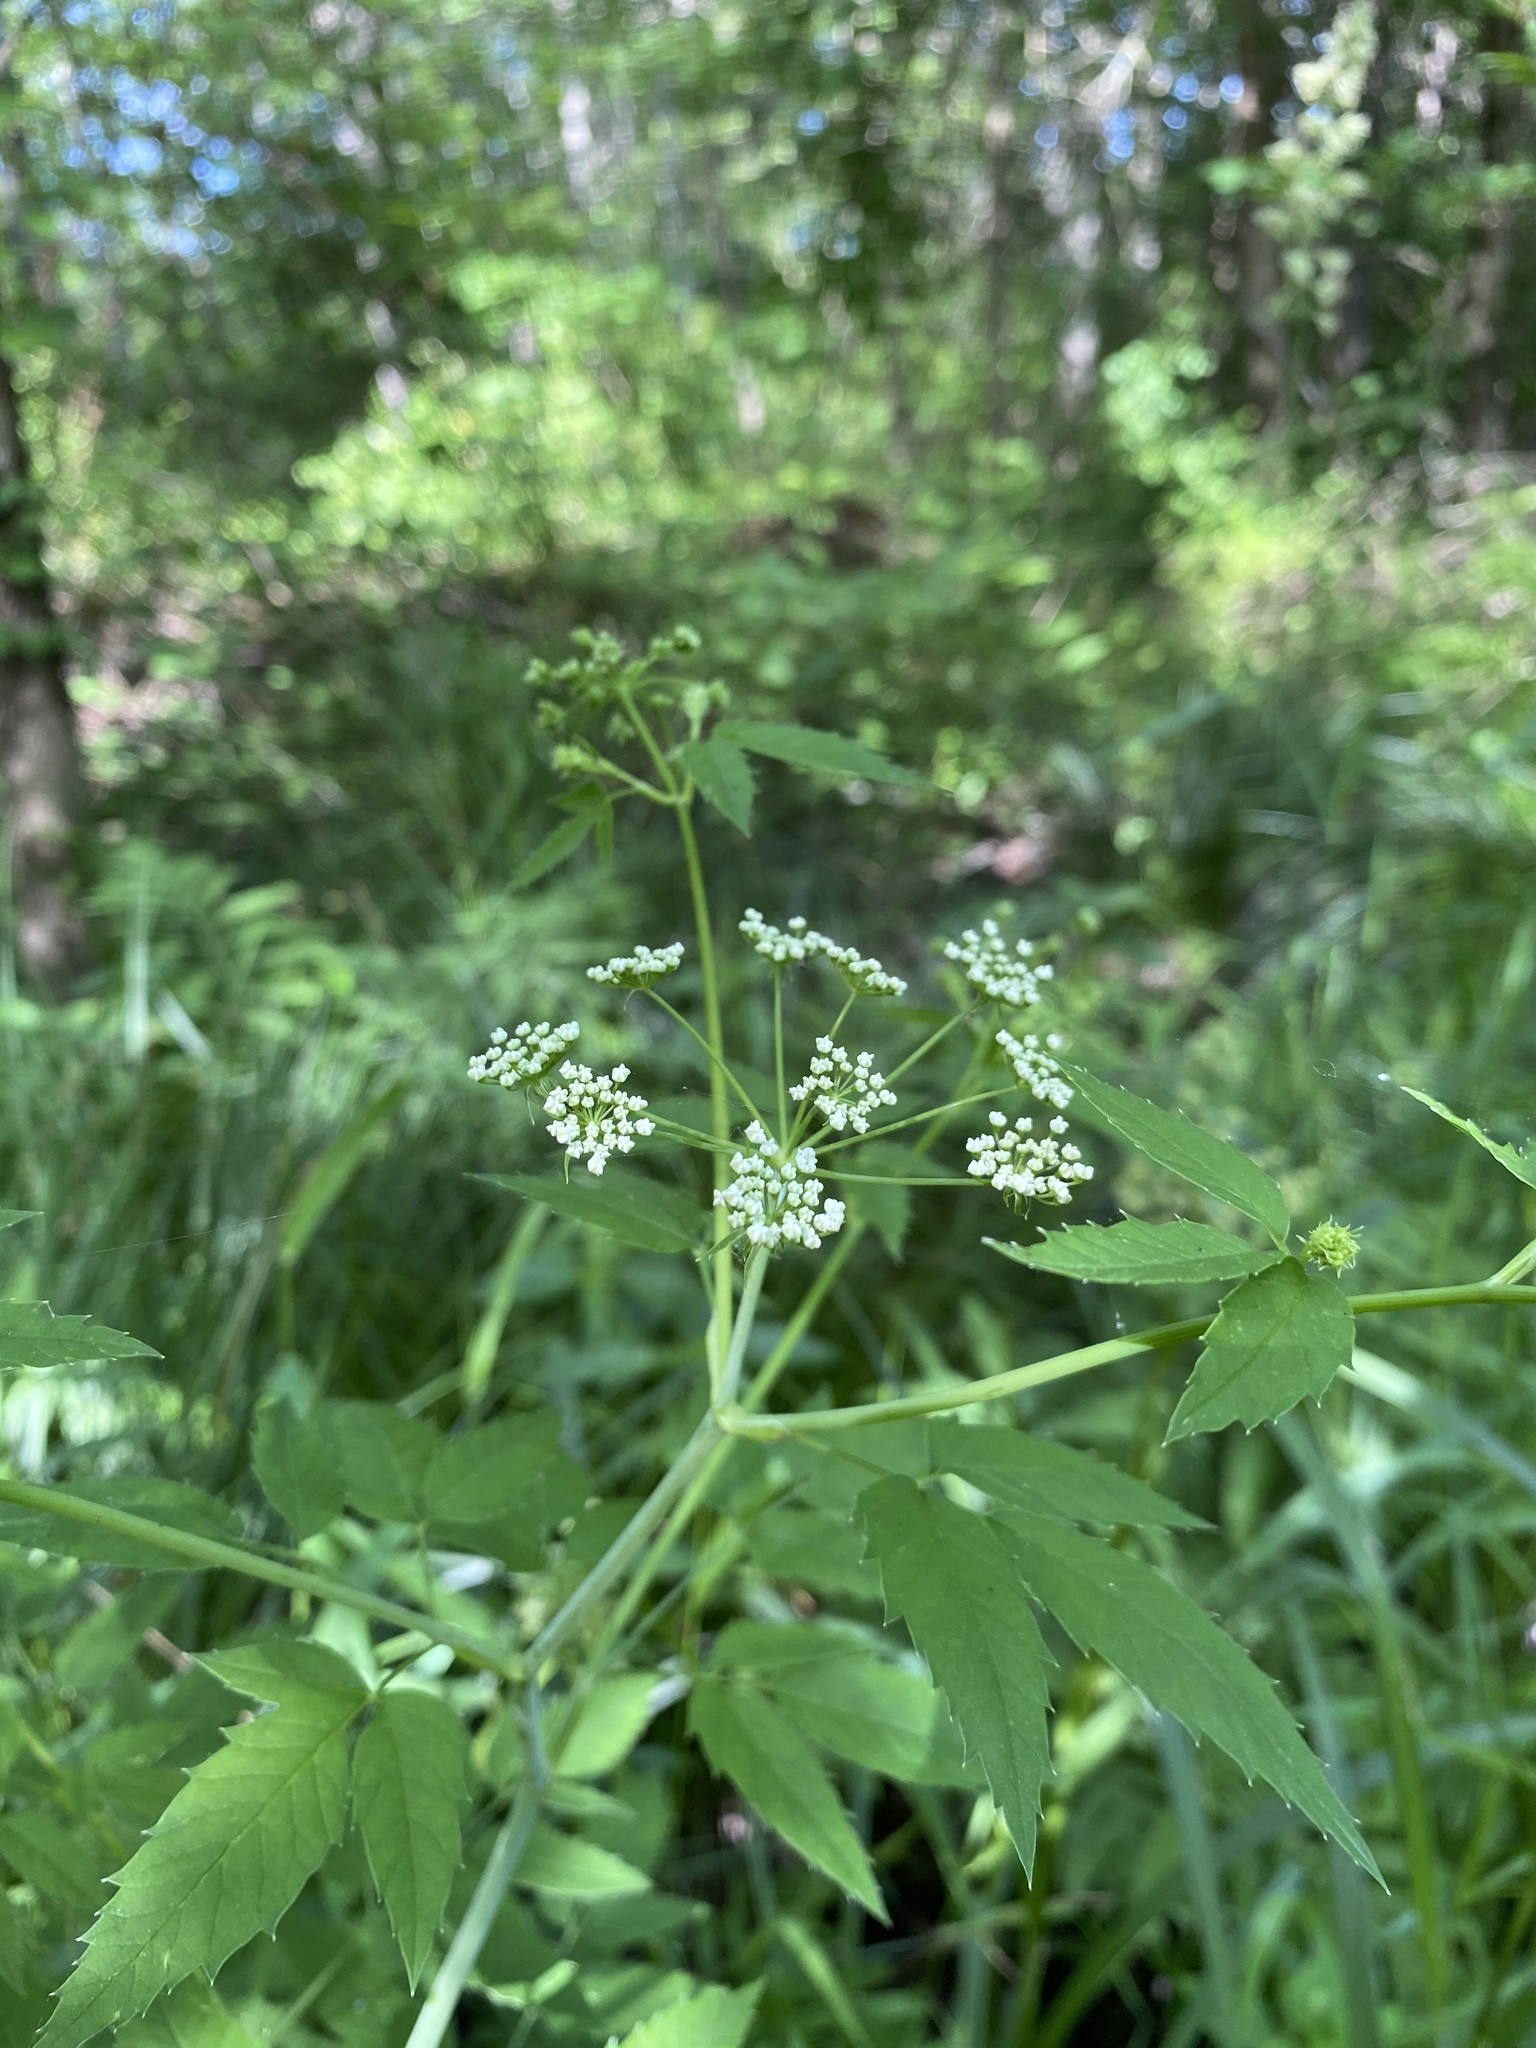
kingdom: Plantae
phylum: Tracheophyta
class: Magnoliopsida
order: Apiales
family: Apiaceae
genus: Cicuta
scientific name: Cicuta maculata
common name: Spotted cowbane
